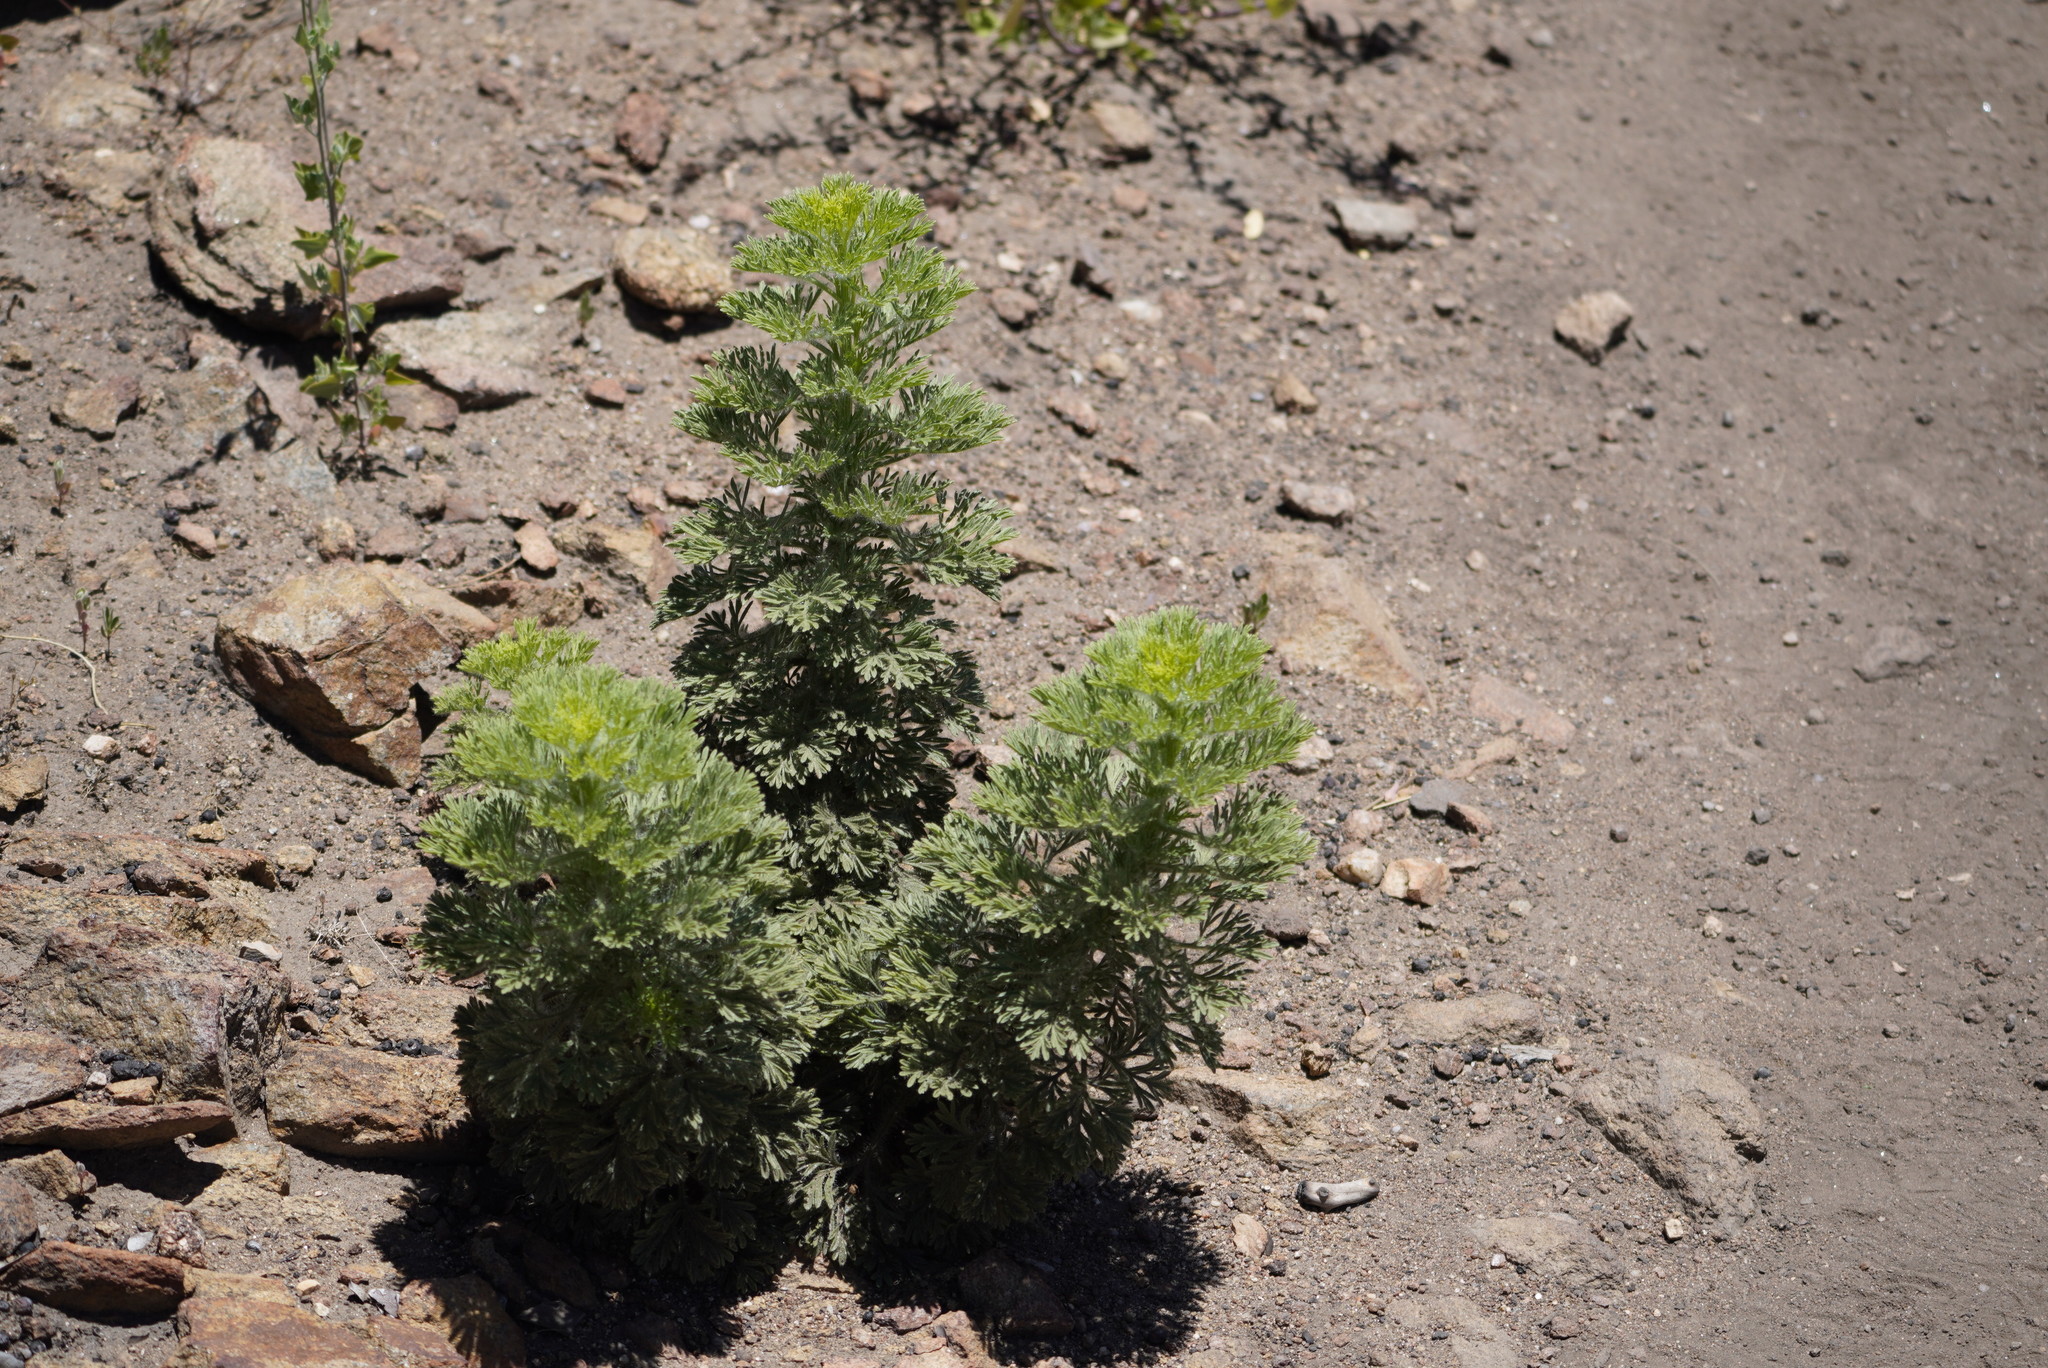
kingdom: Plantae
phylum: Tracheophyta
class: Magnoliopsida
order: Asterales
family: Asteraceae
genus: Hymenothrix
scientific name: Hymenothrix
